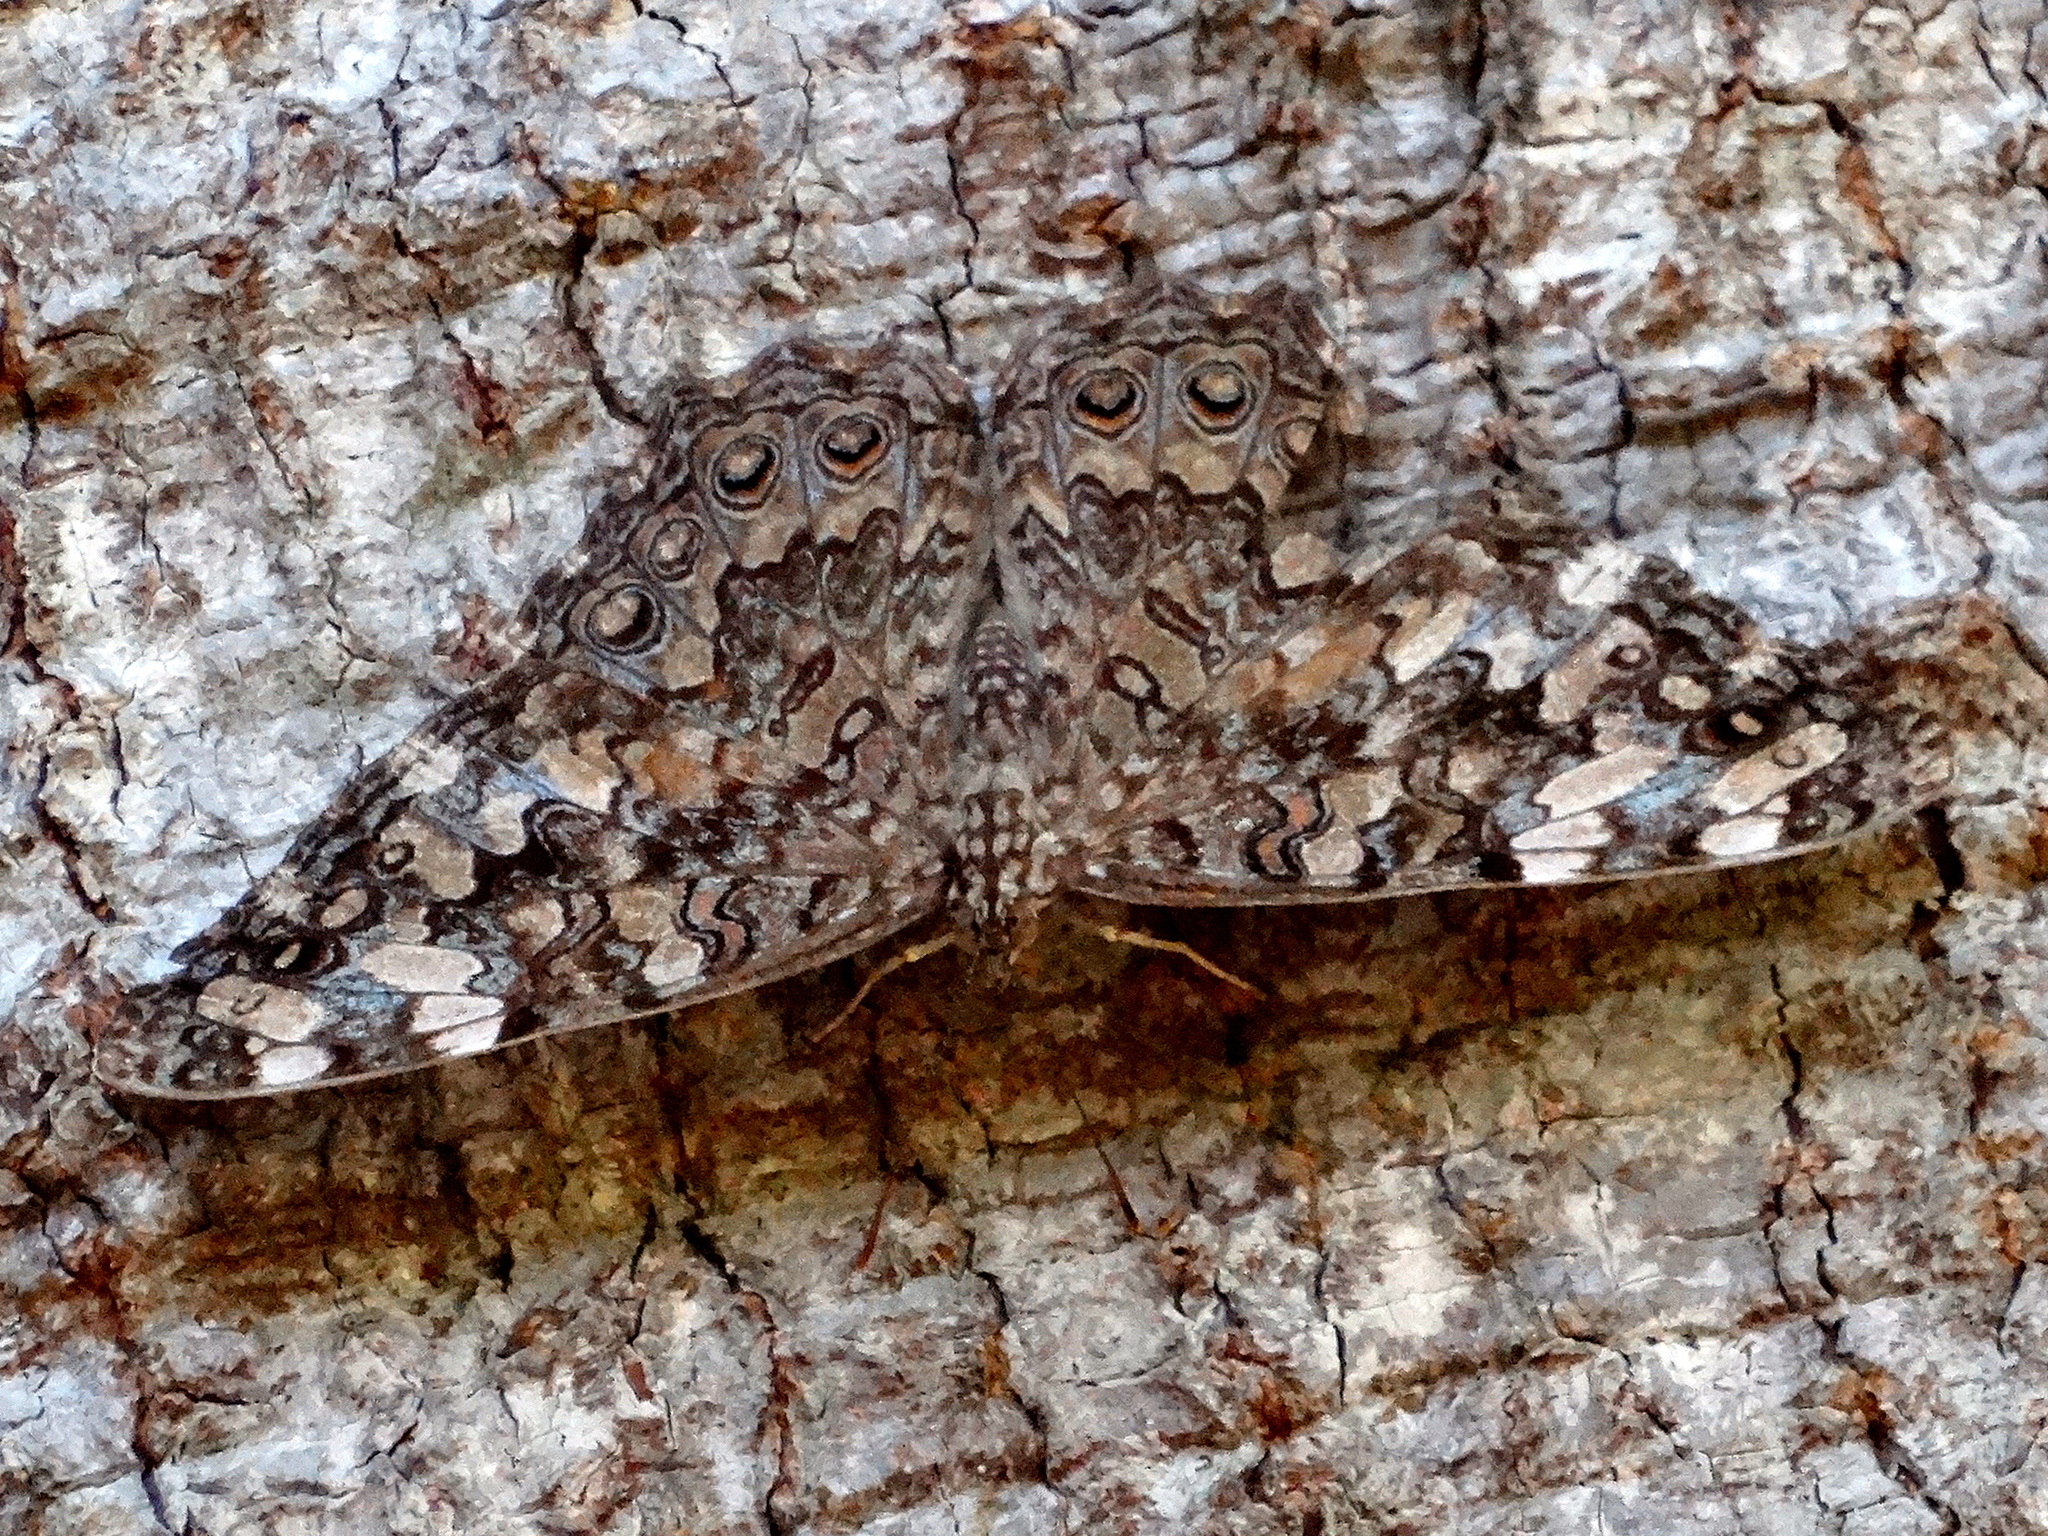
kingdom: Animalia
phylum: Arthropoda
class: Insecta
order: Lepidoptera
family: Nymphalidae
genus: Hamadryas
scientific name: Hamadryas februa
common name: Gray cracker
